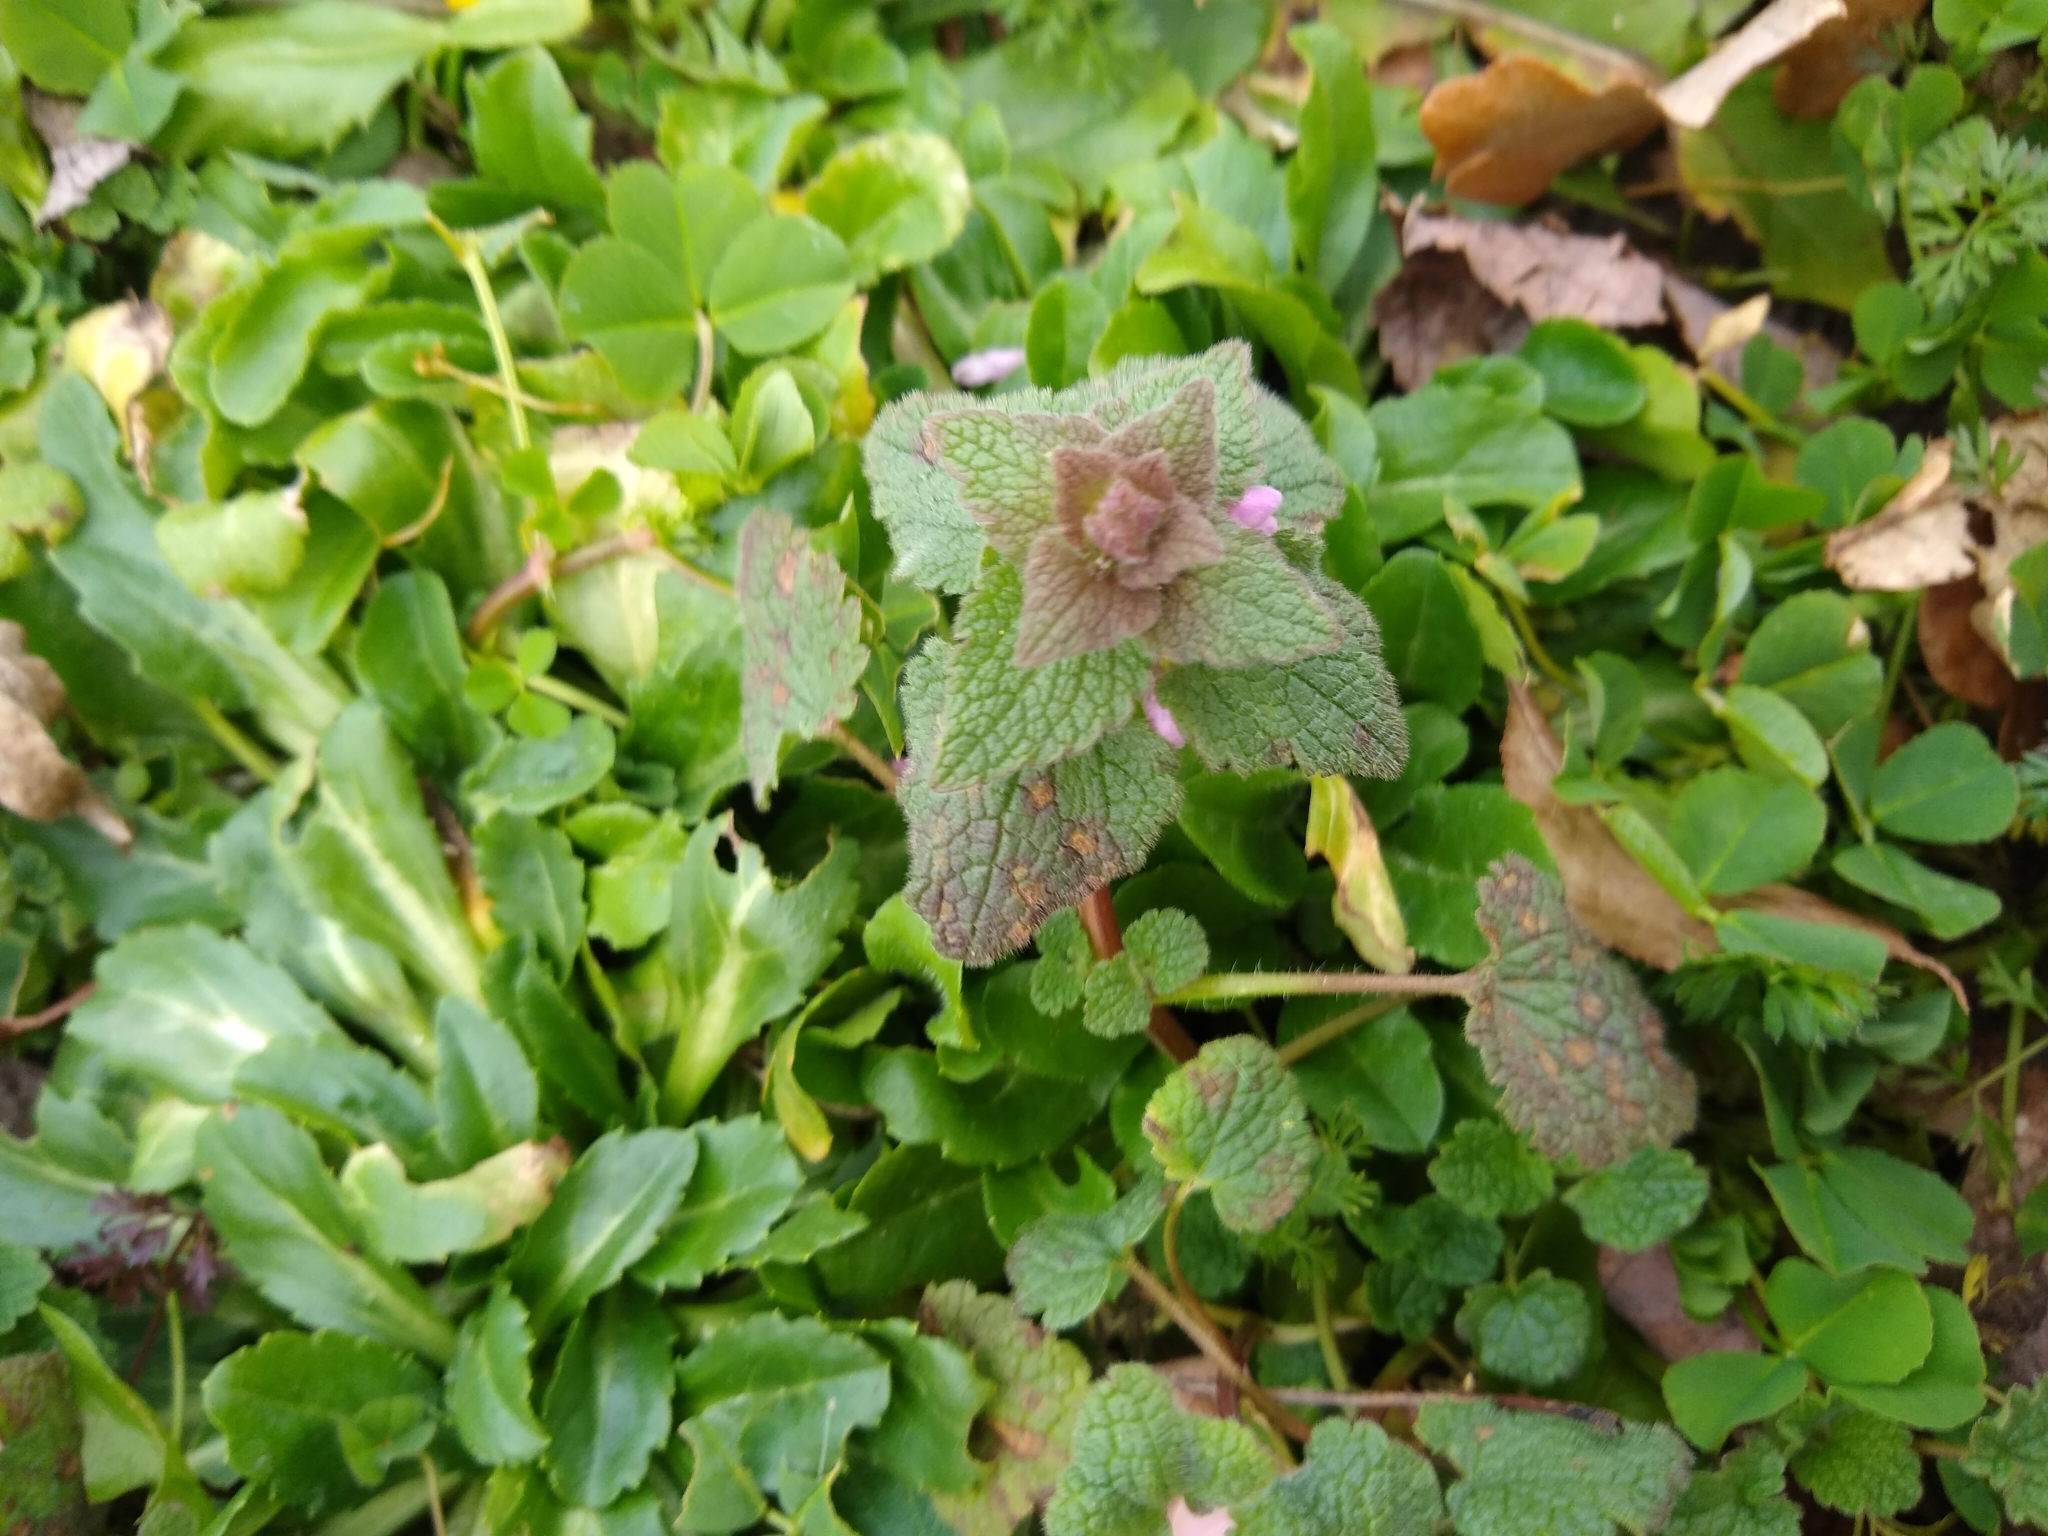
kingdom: Plantae
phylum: Tracheophyta
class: Magnoliopsida
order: Lamiales
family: Lamiaceae
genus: Lamium
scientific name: Lamium purpureum
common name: Red dead-nettle
